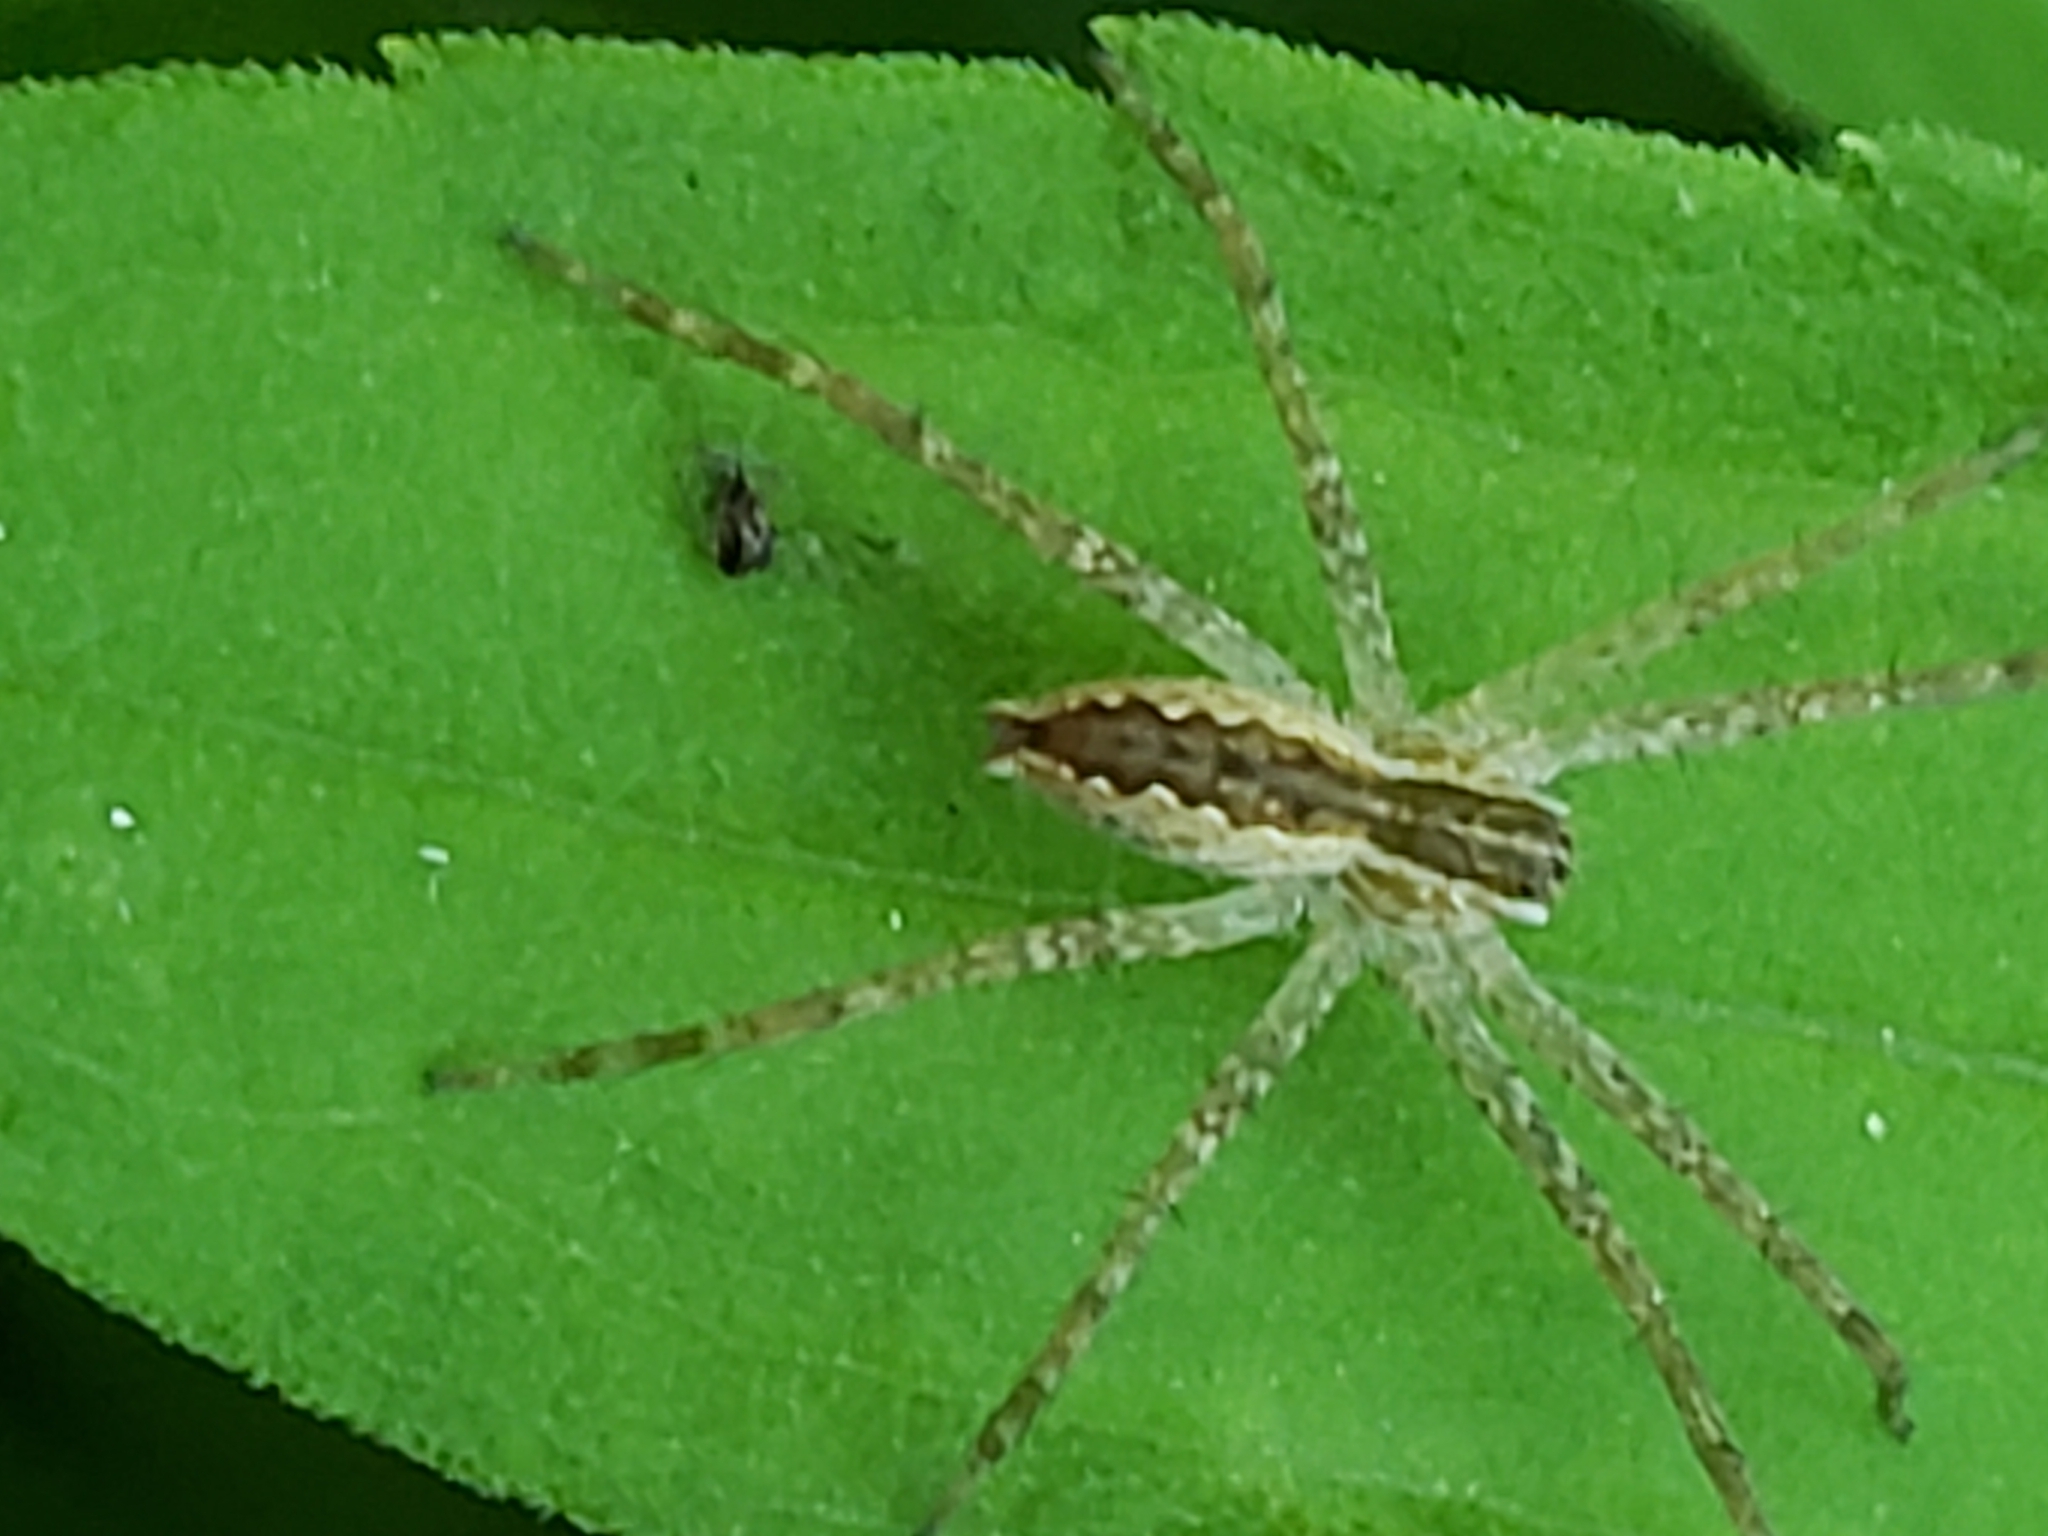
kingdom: Animalia
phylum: Arthropoda
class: Arachnida
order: Araneae
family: Pisauridae
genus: Pisaurina
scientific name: Pisaurina mira
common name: American nursery web spider
